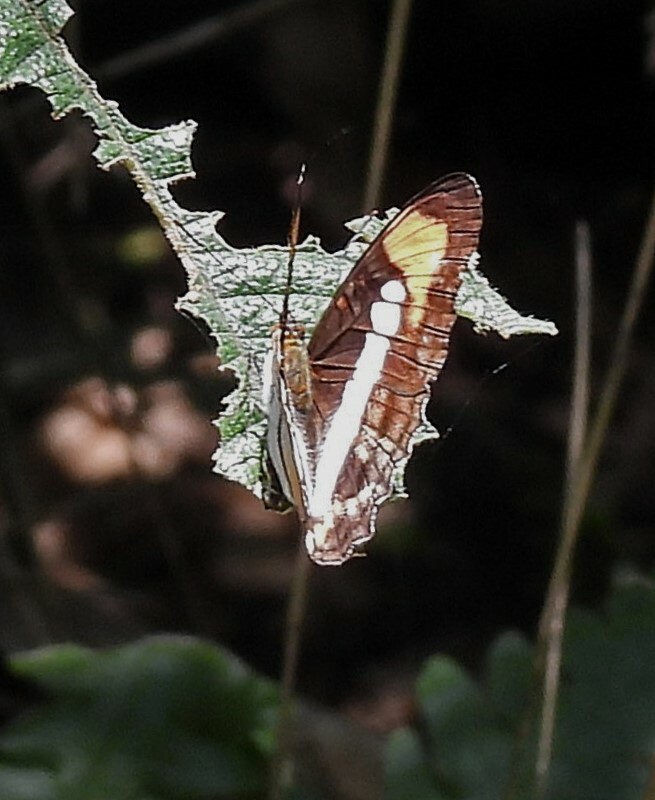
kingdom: Animalia
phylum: Arthropoda
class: Insecta
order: Lepidoptera
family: Nymphalidae
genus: Limenitis
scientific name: Limenitis serpa
